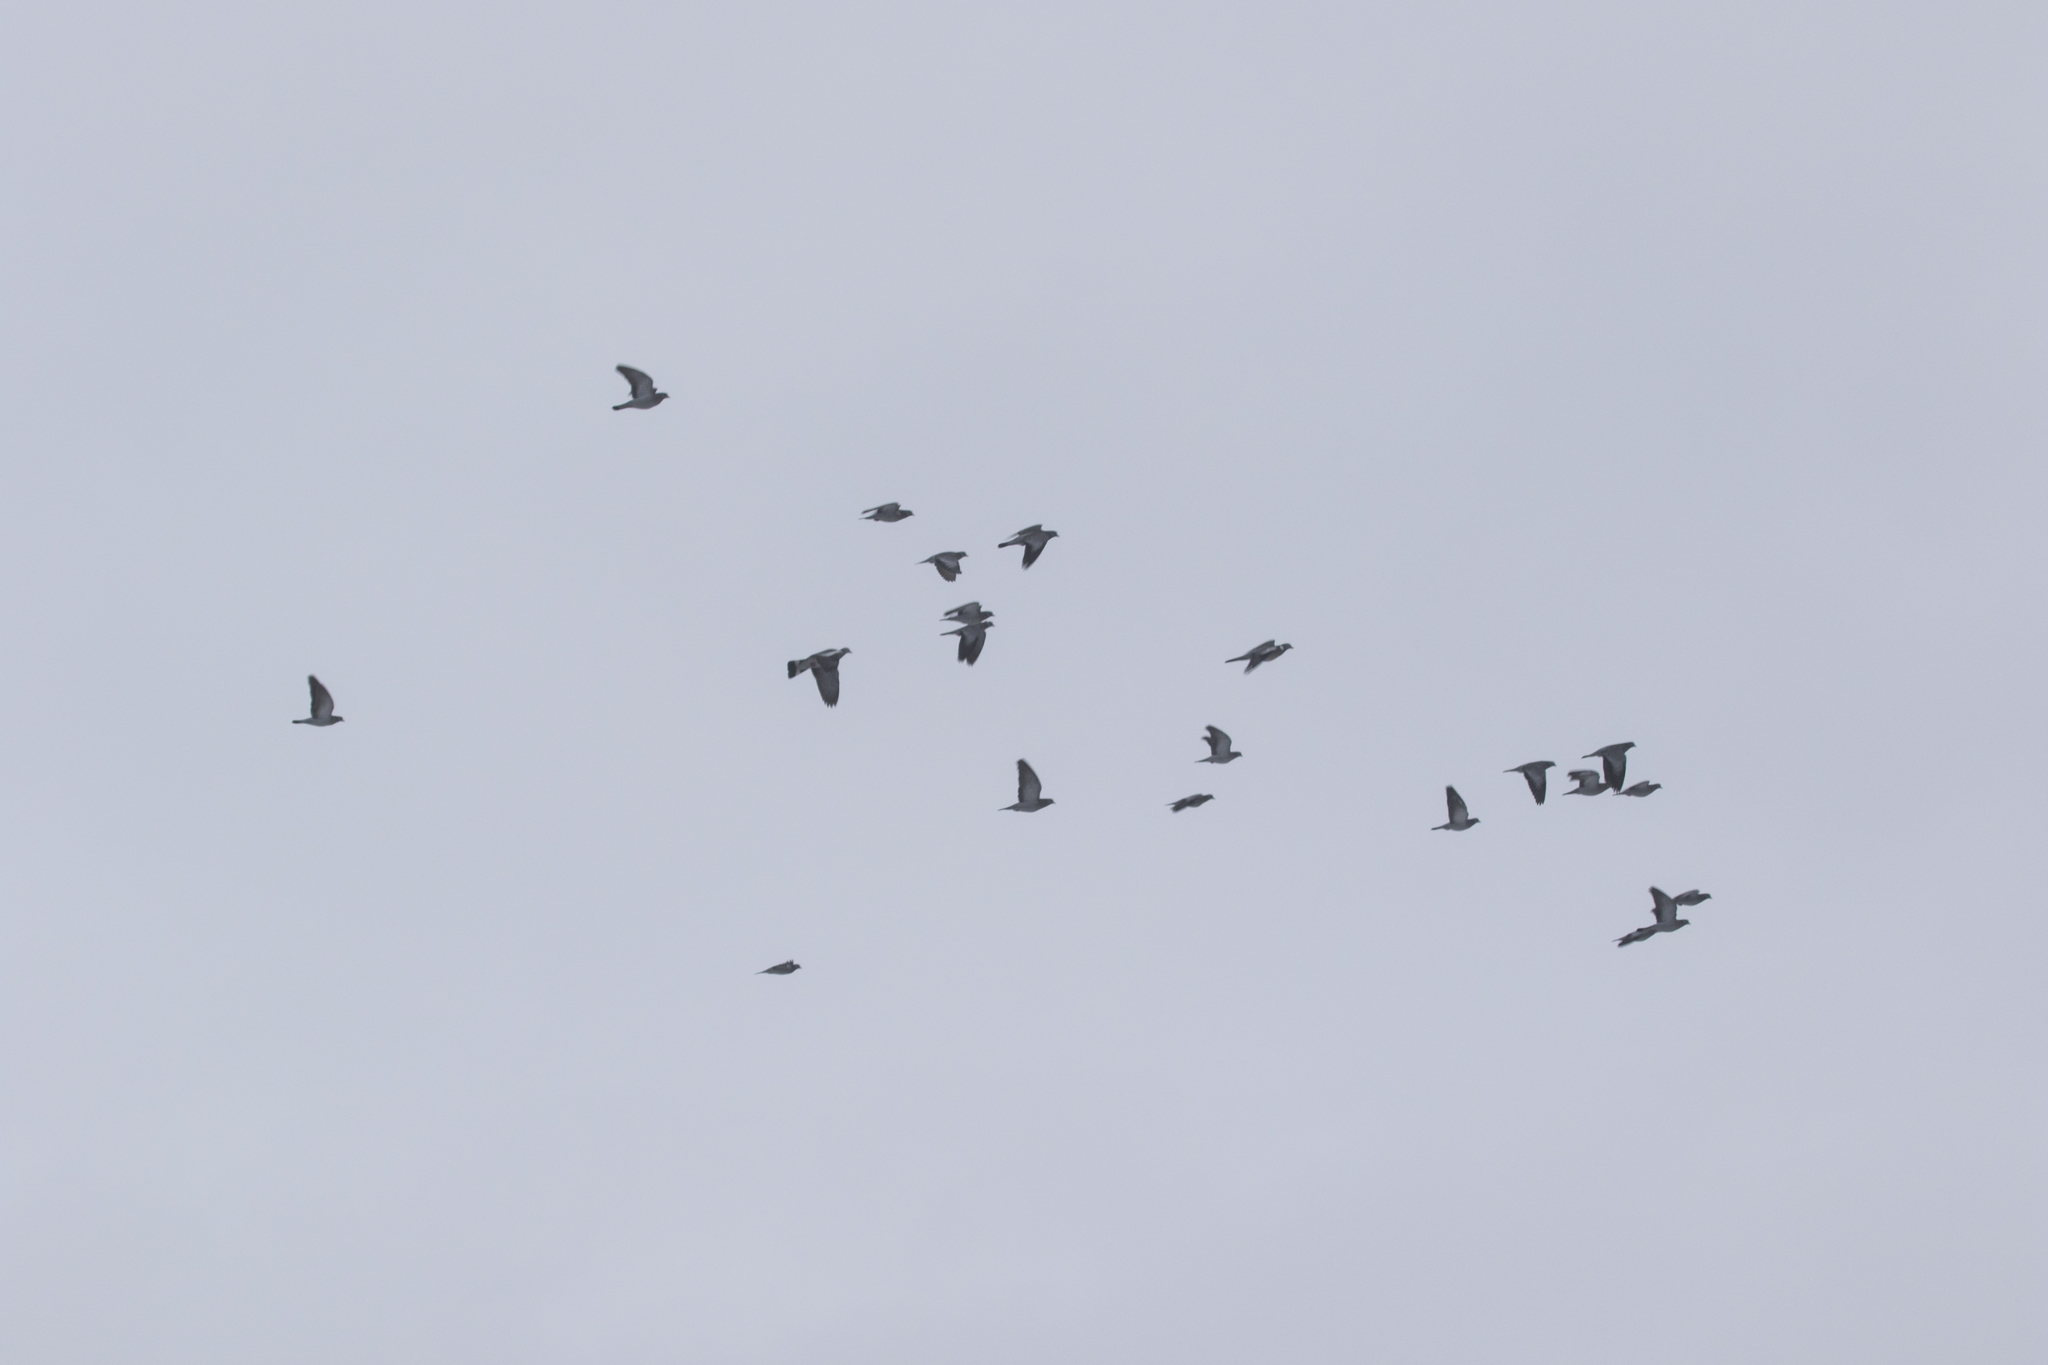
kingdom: Animalia
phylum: Chordata
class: Aves
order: Columbiformes
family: Columbidae
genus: Columba
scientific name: Columba palumbus
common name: Common wood pigeon
